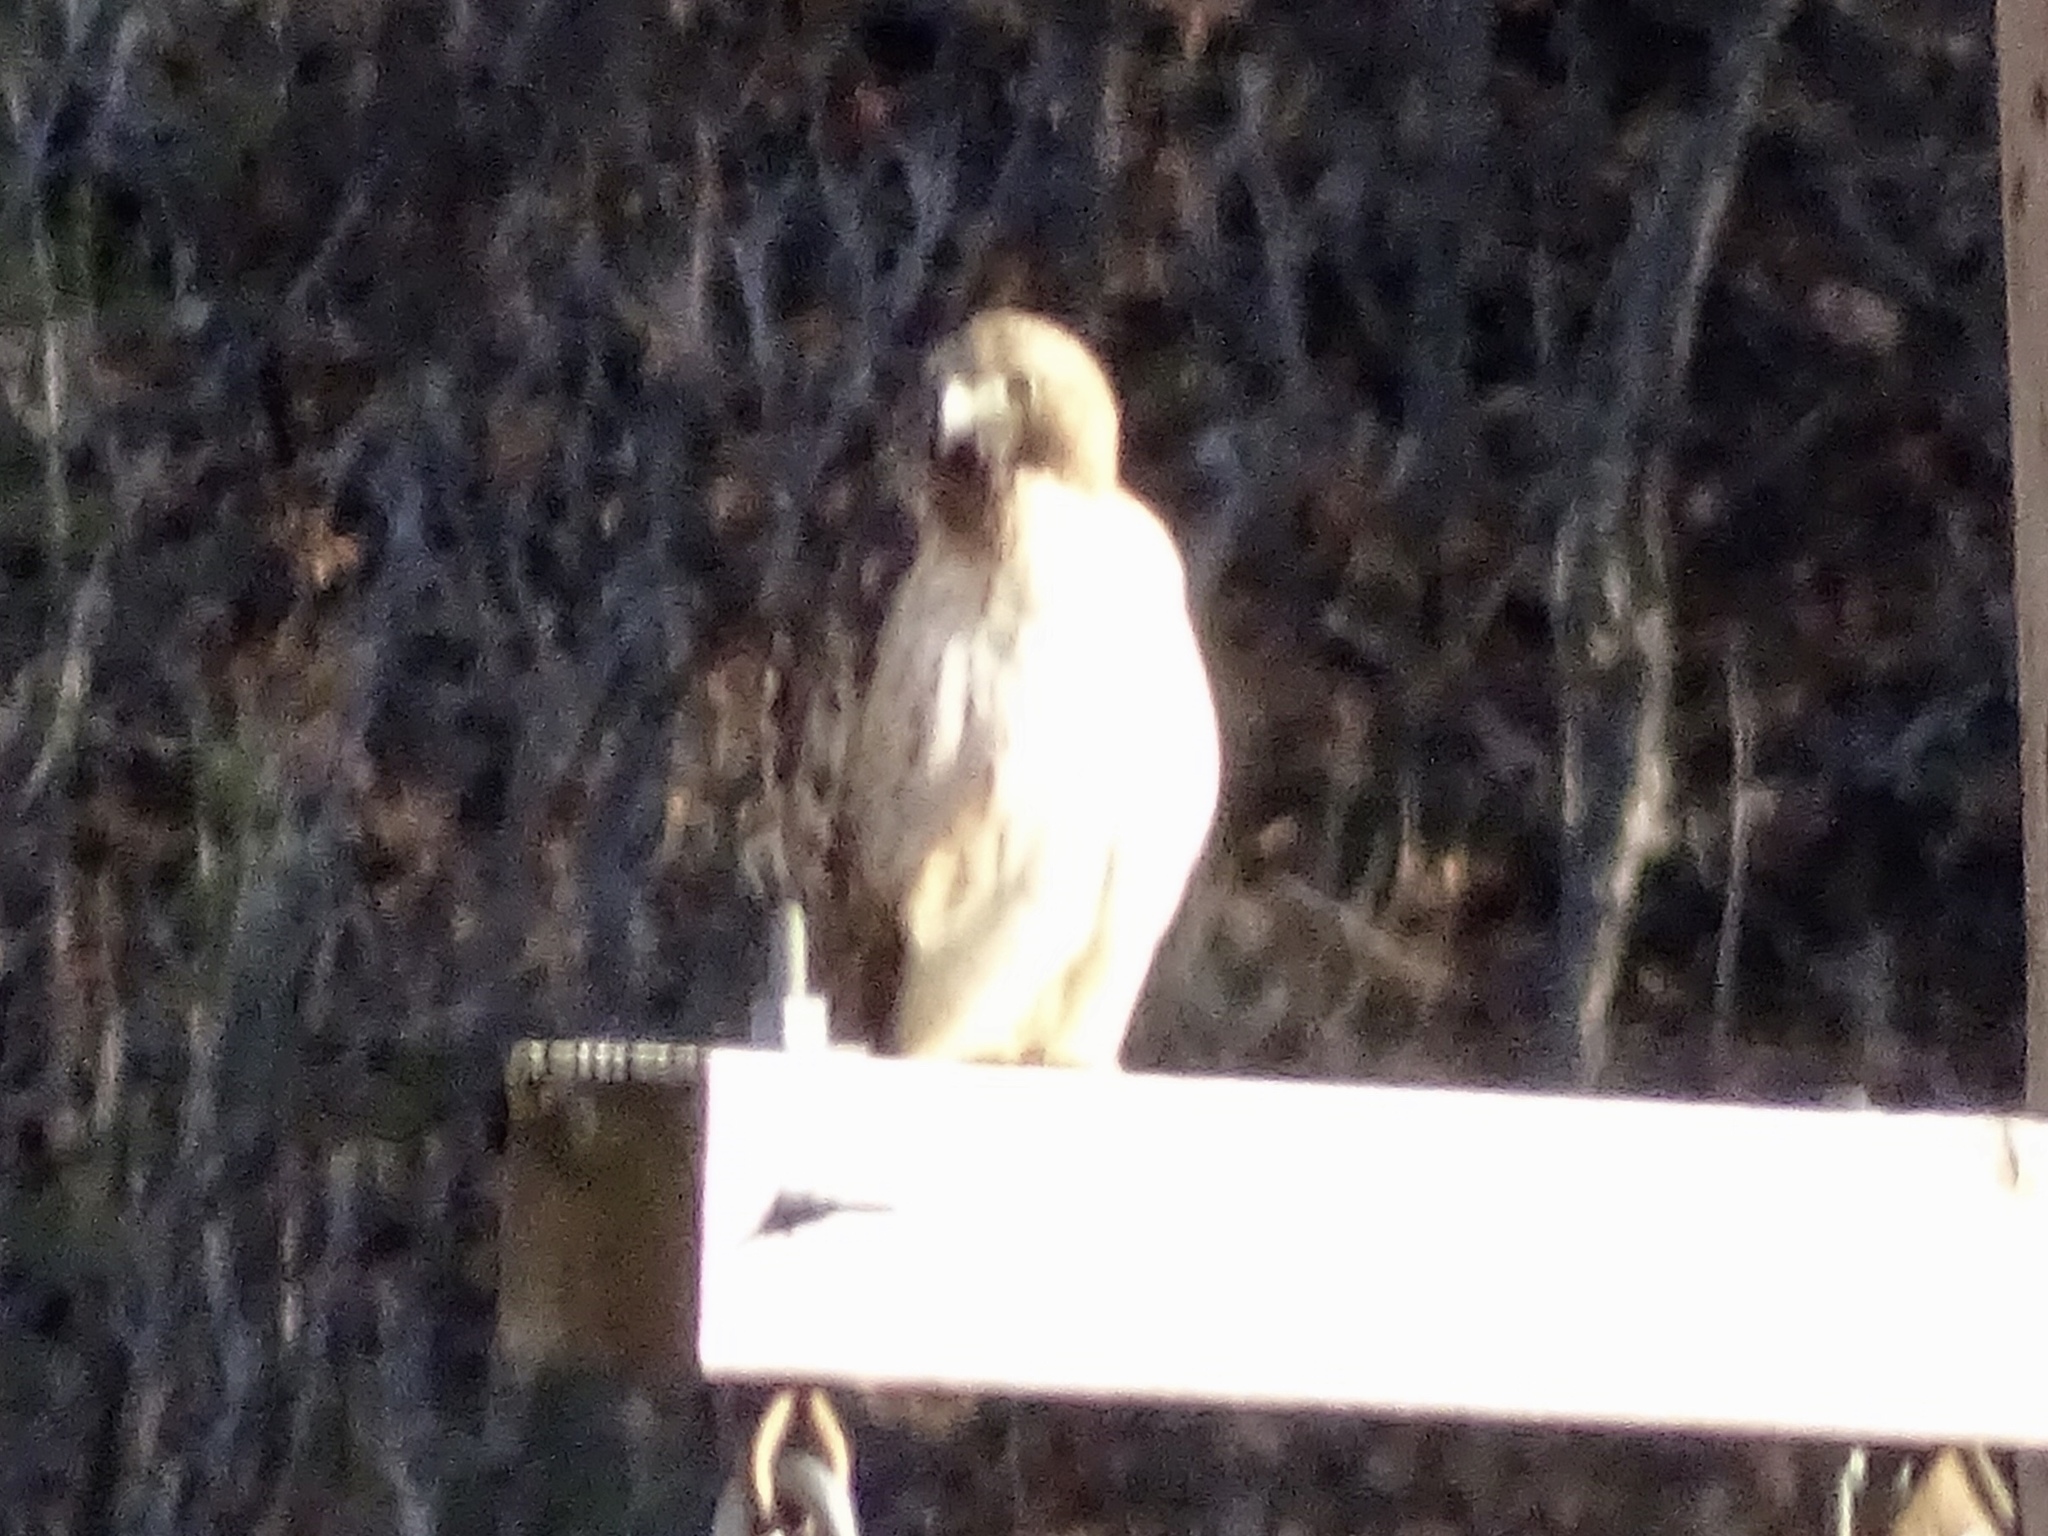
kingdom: Animalia
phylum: Chordata
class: Aves
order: Accipitriformes
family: Accipitridae
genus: Buteo
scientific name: Buteo jamaicensis
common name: Red-tailed hawk
